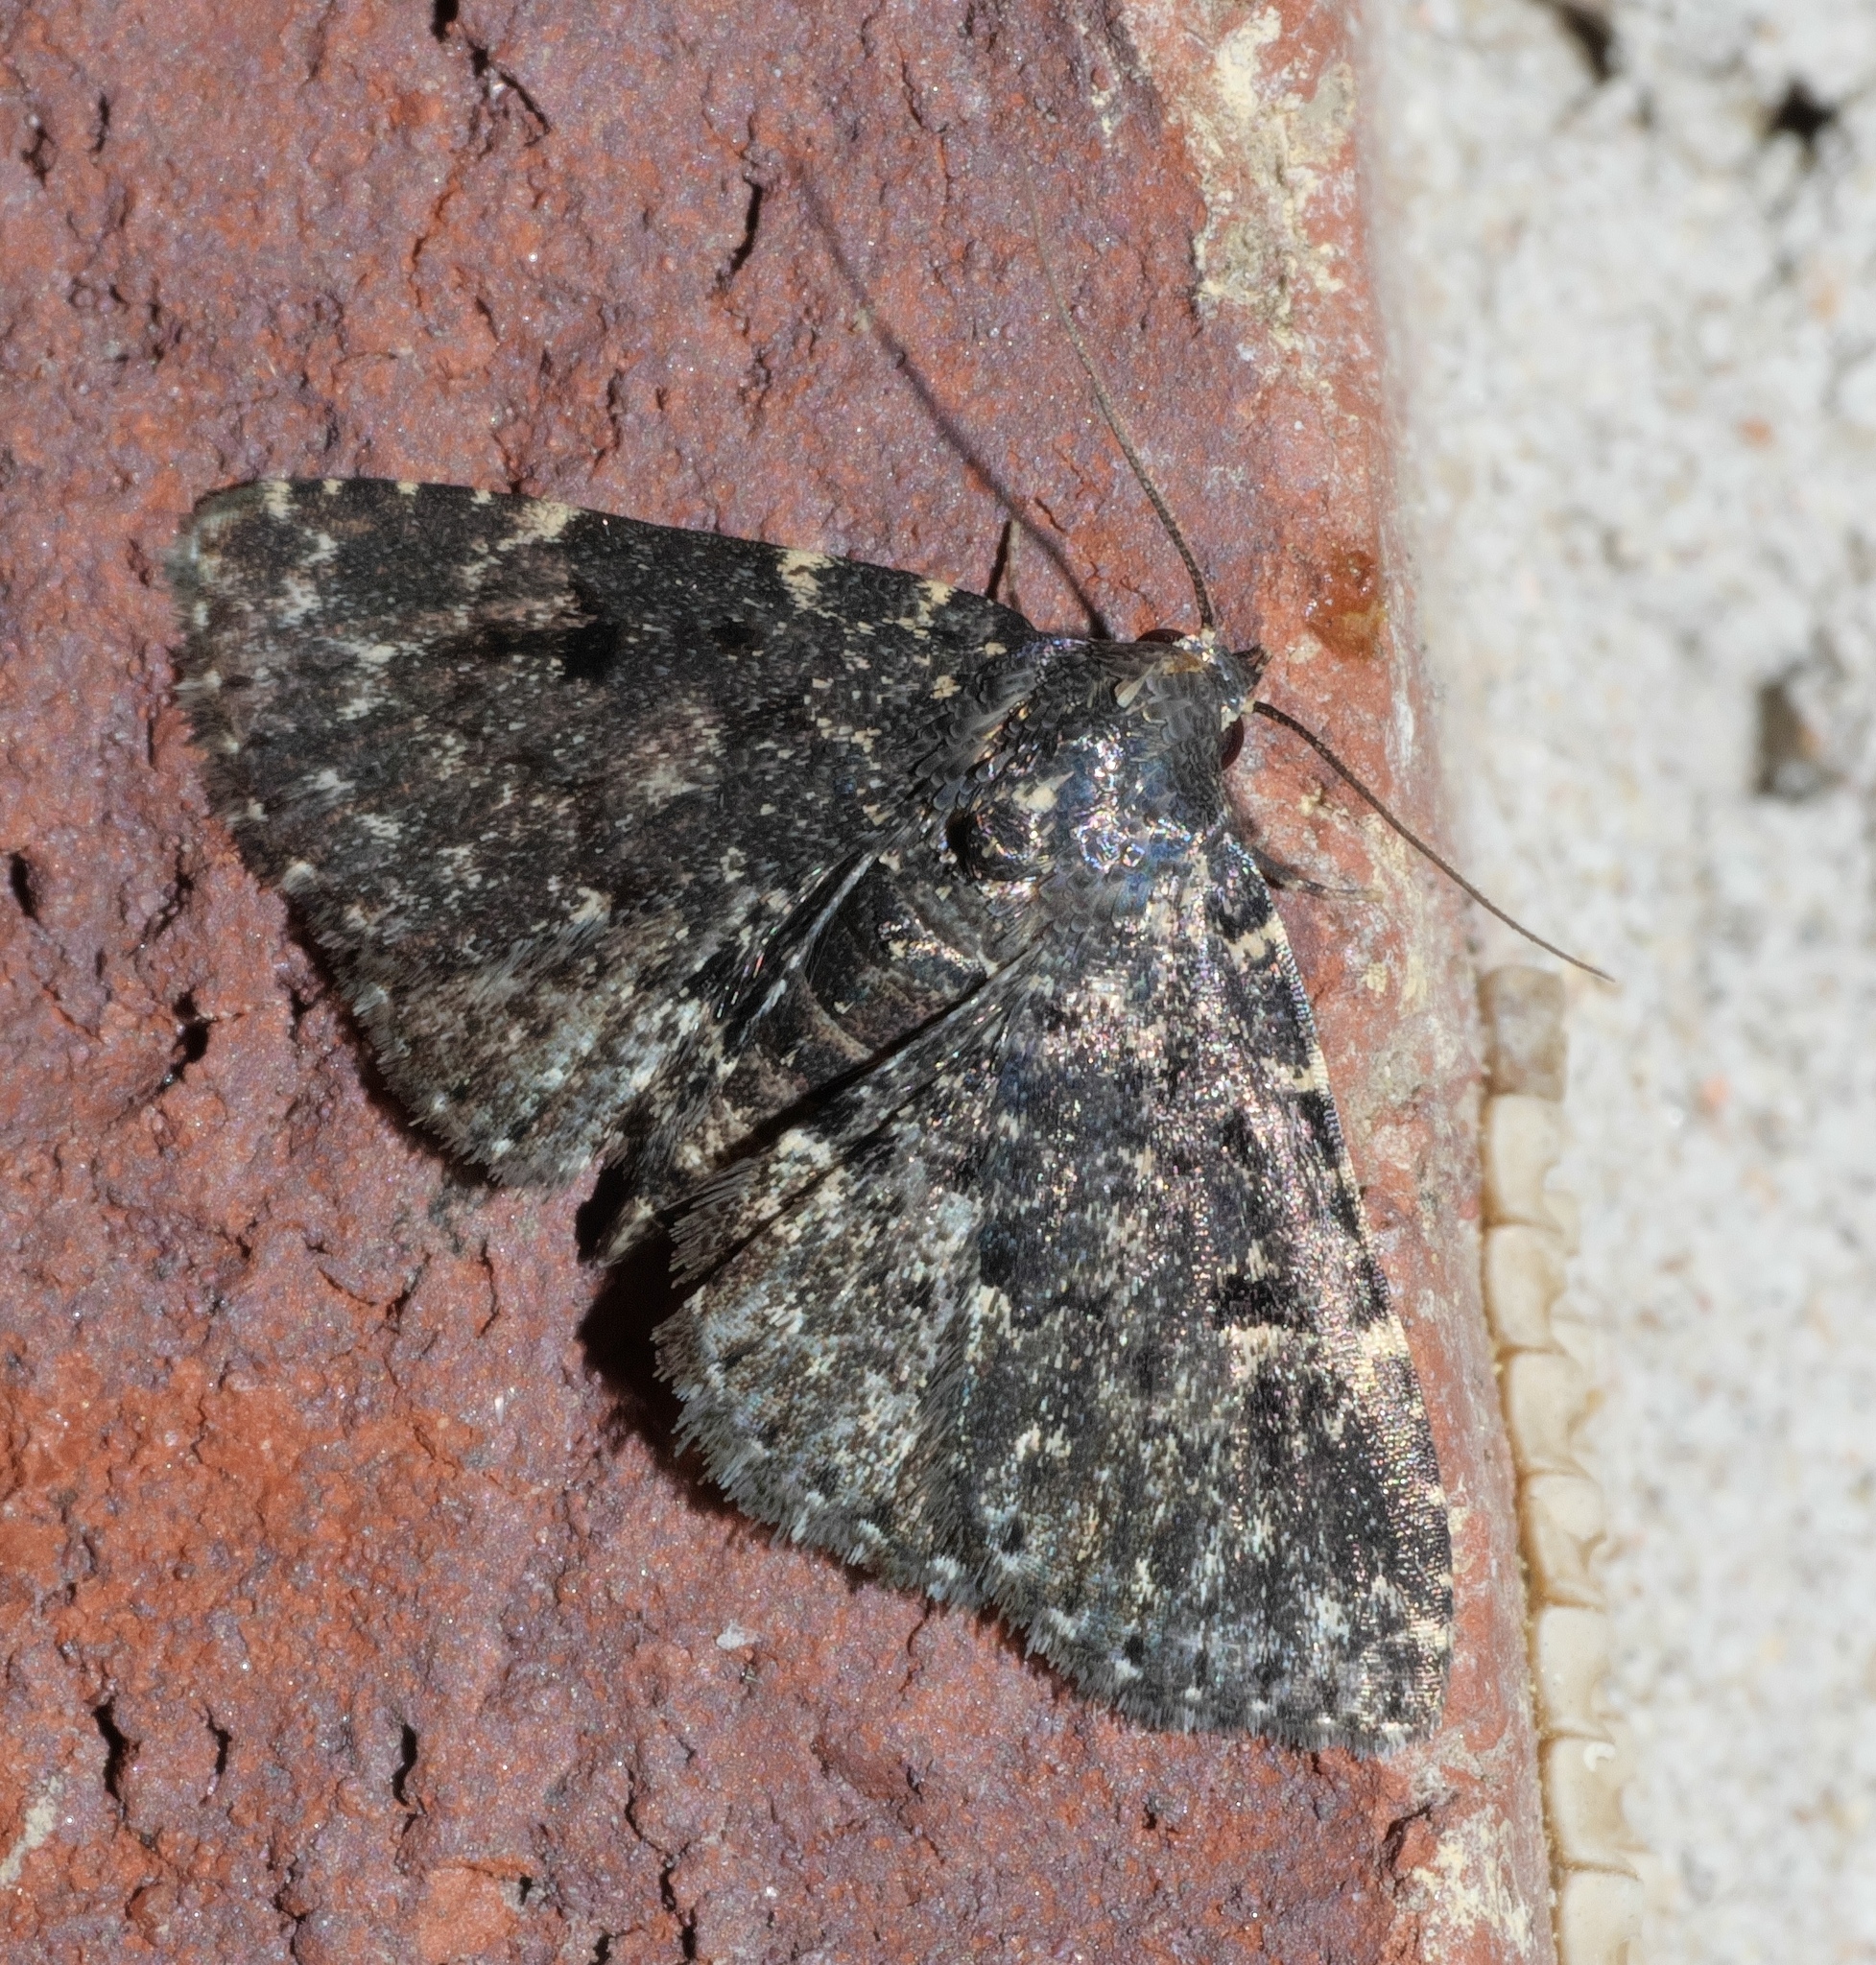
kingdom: Animalia
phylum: Arthropoda
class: Insecta
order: Lepidoptera
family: Erebidae
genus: Metalectra
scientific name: Metalectra diabolica
